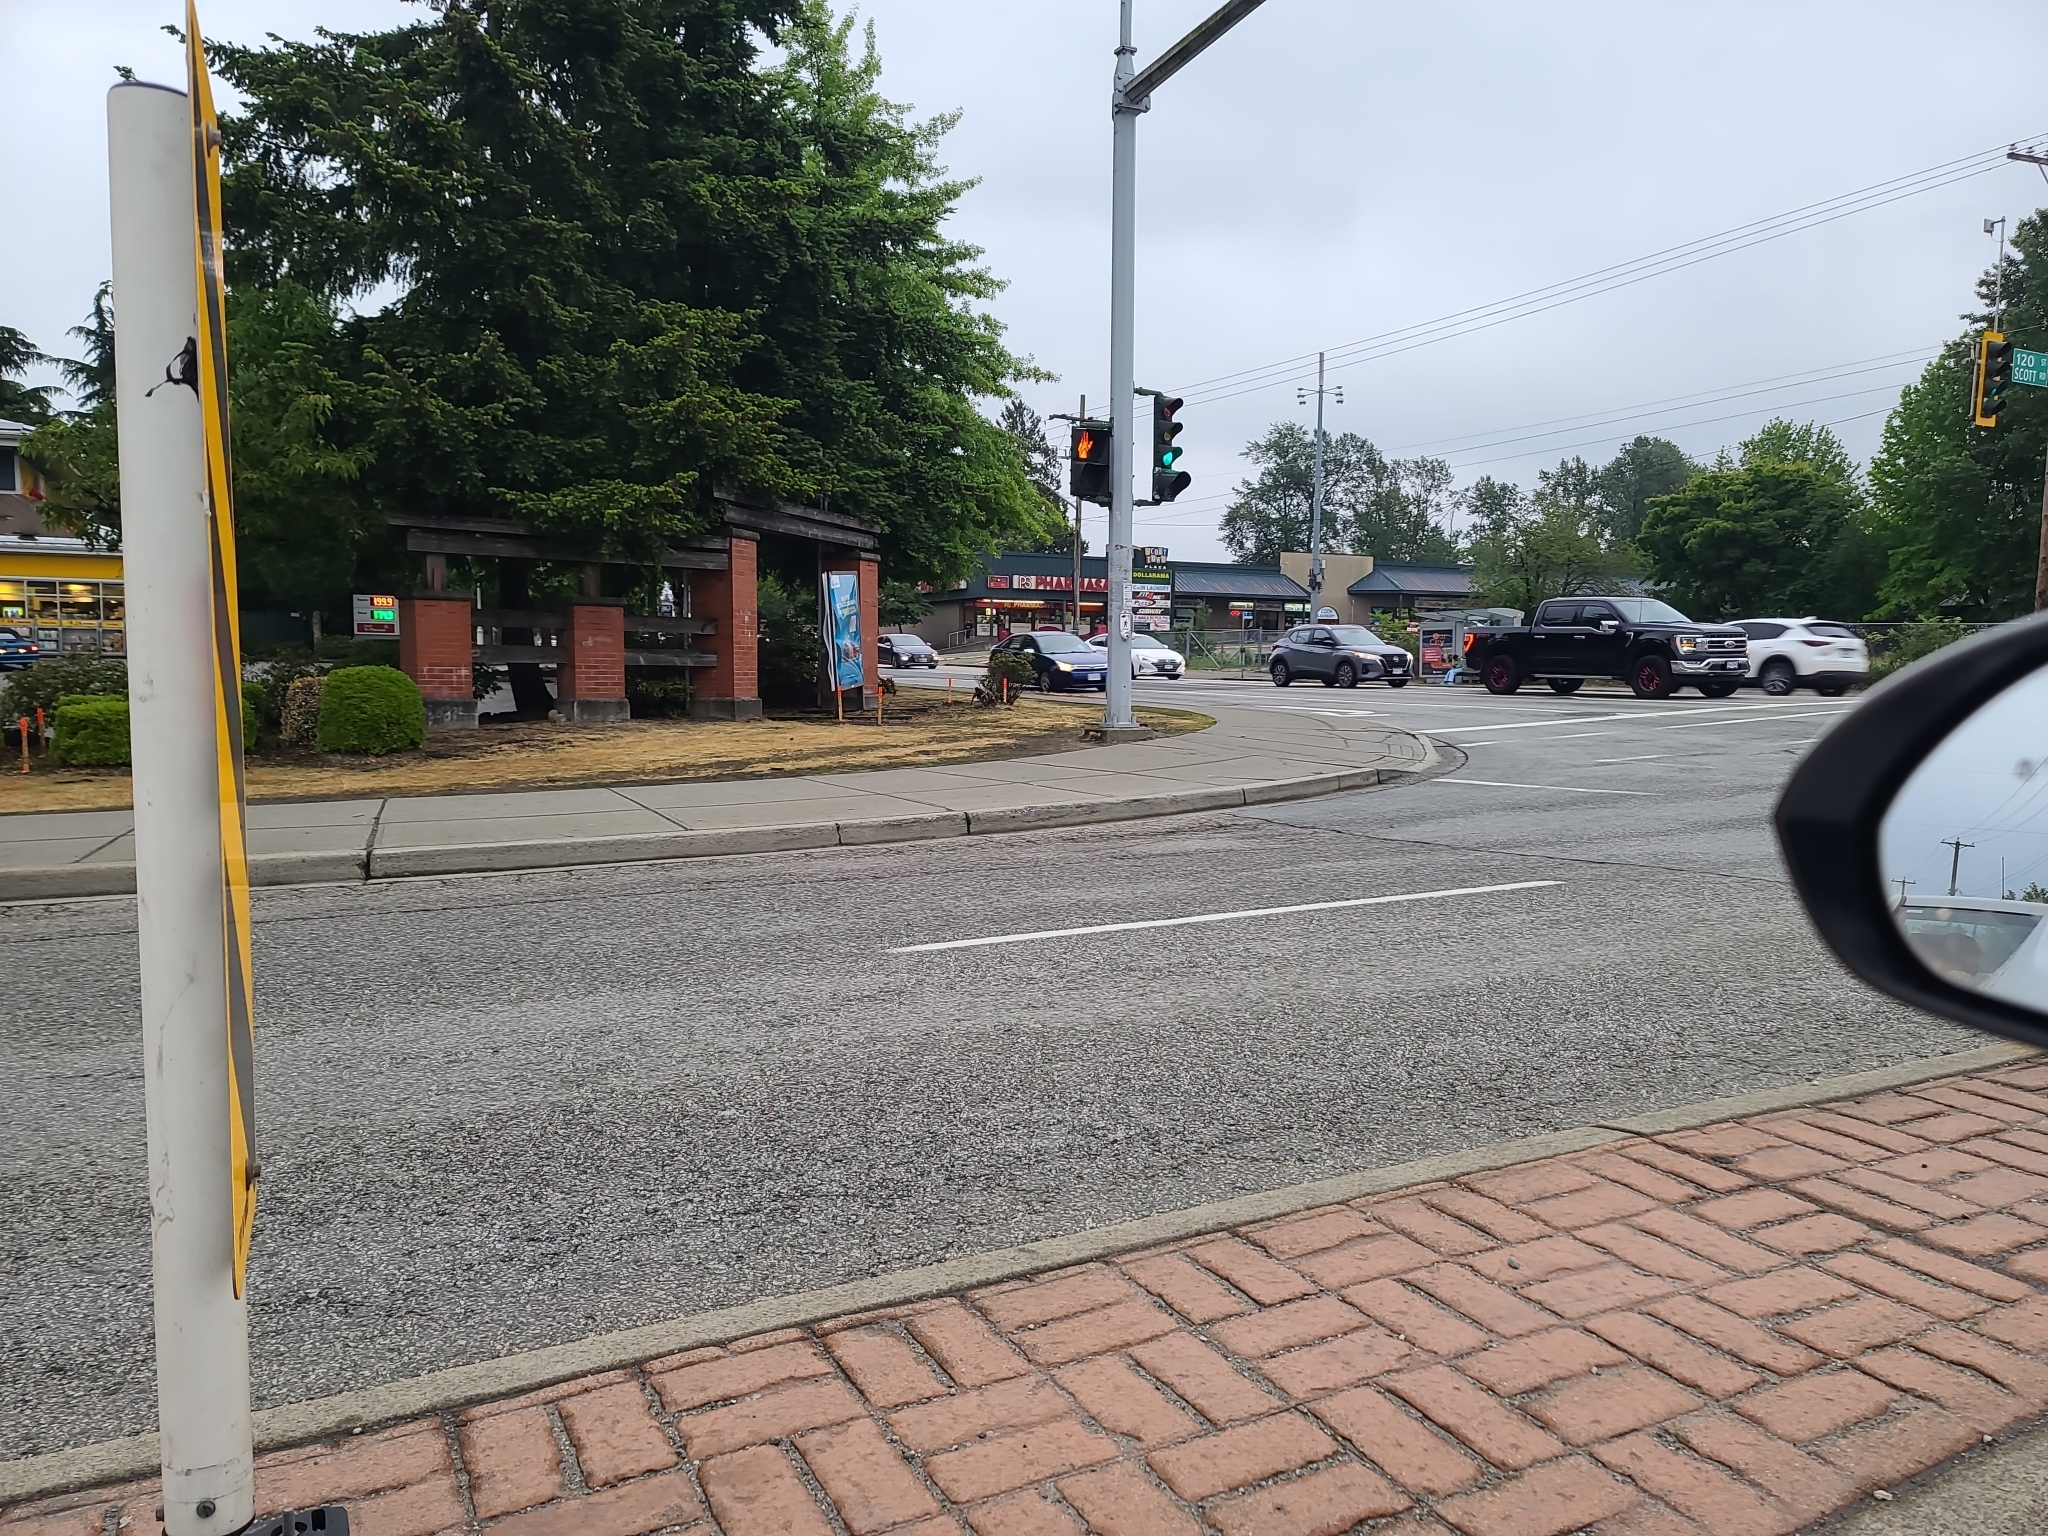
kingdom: Animalia
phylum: Chordata
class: Aves
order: Passeriformes
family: Corvidae
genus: Corvus
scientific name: Corvus brachyrhynchos
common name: American crow
